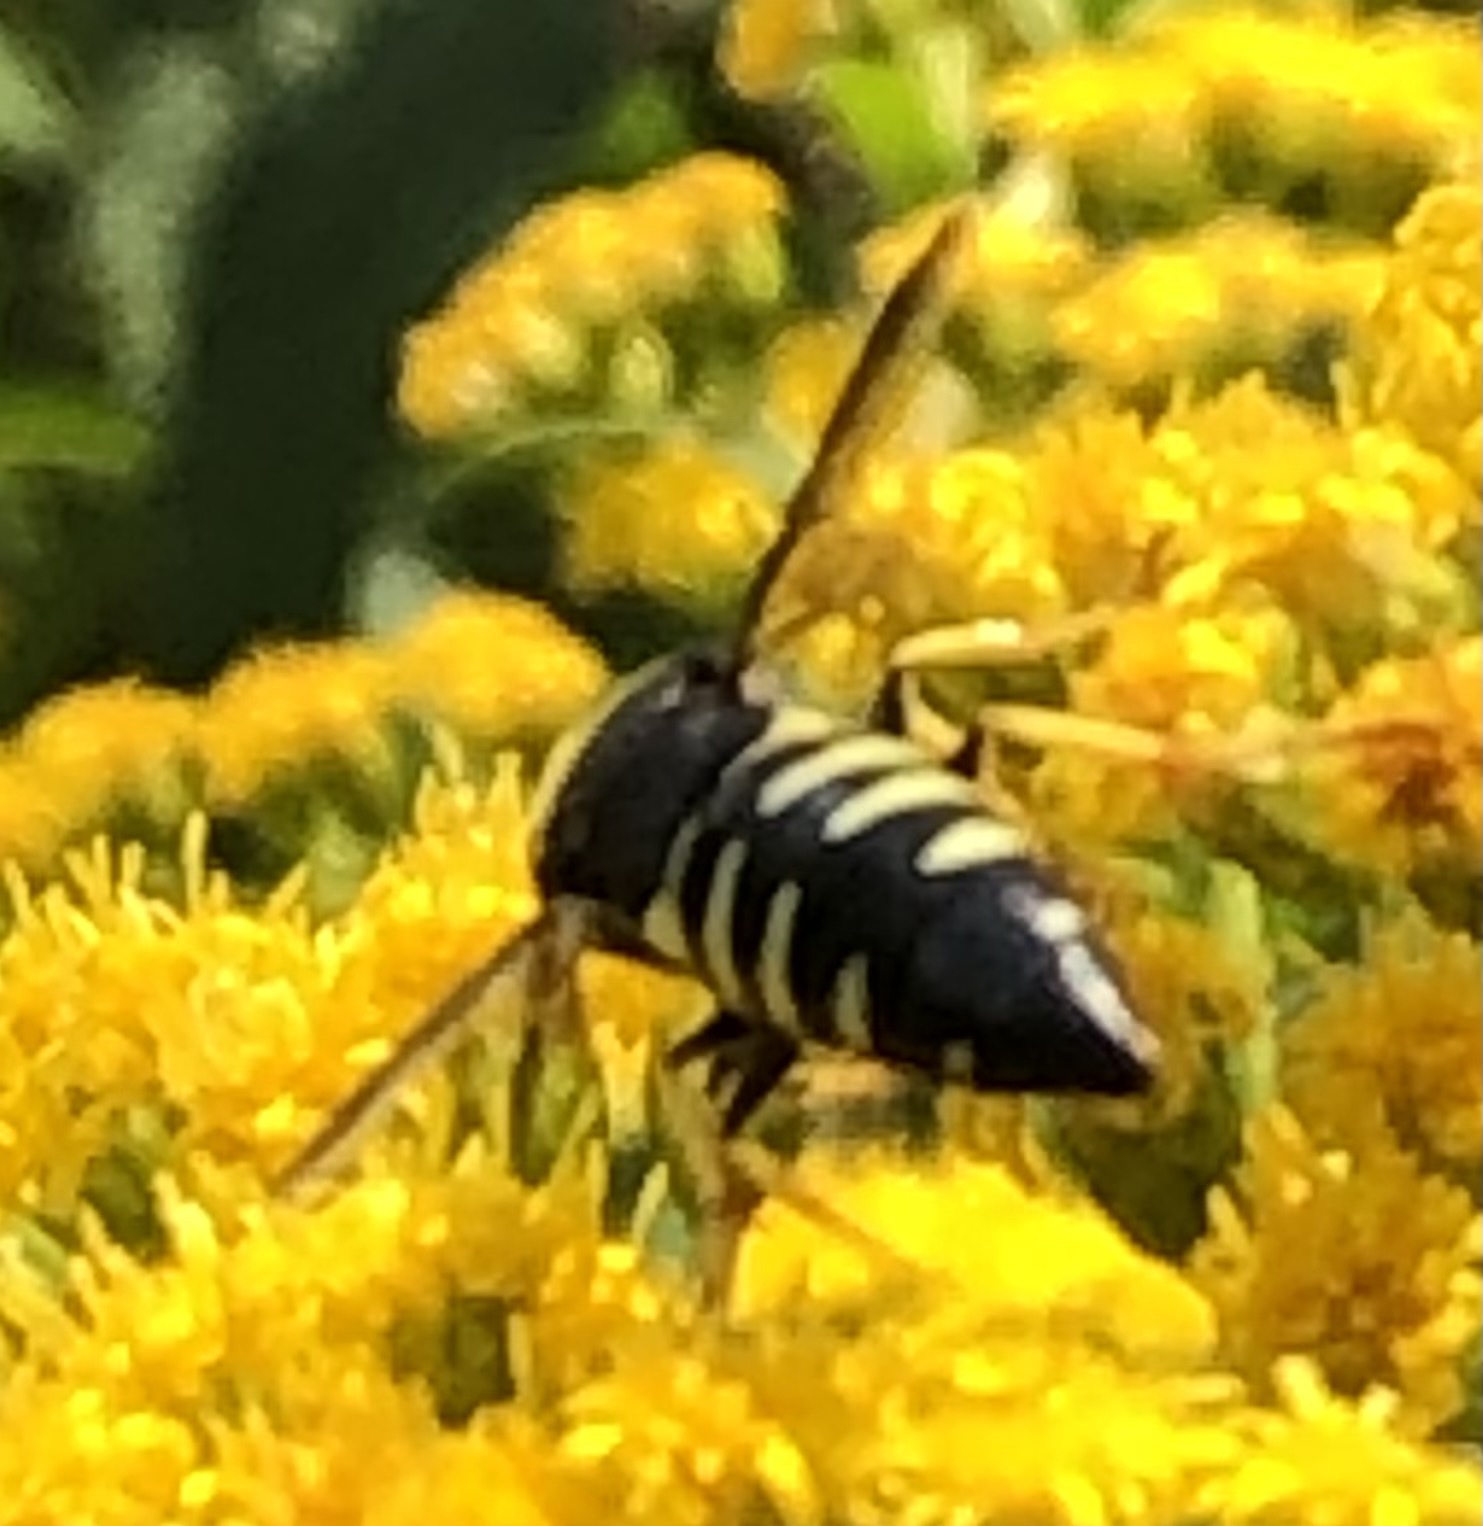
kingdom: Animalia
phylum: Arthropoda
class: Insecta
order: Hymenoptera
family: Crabronidae
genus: Bicyrtes
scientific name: Bicyrtes quadrifasciatus
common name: Four-banded stink bug hunter wasp
